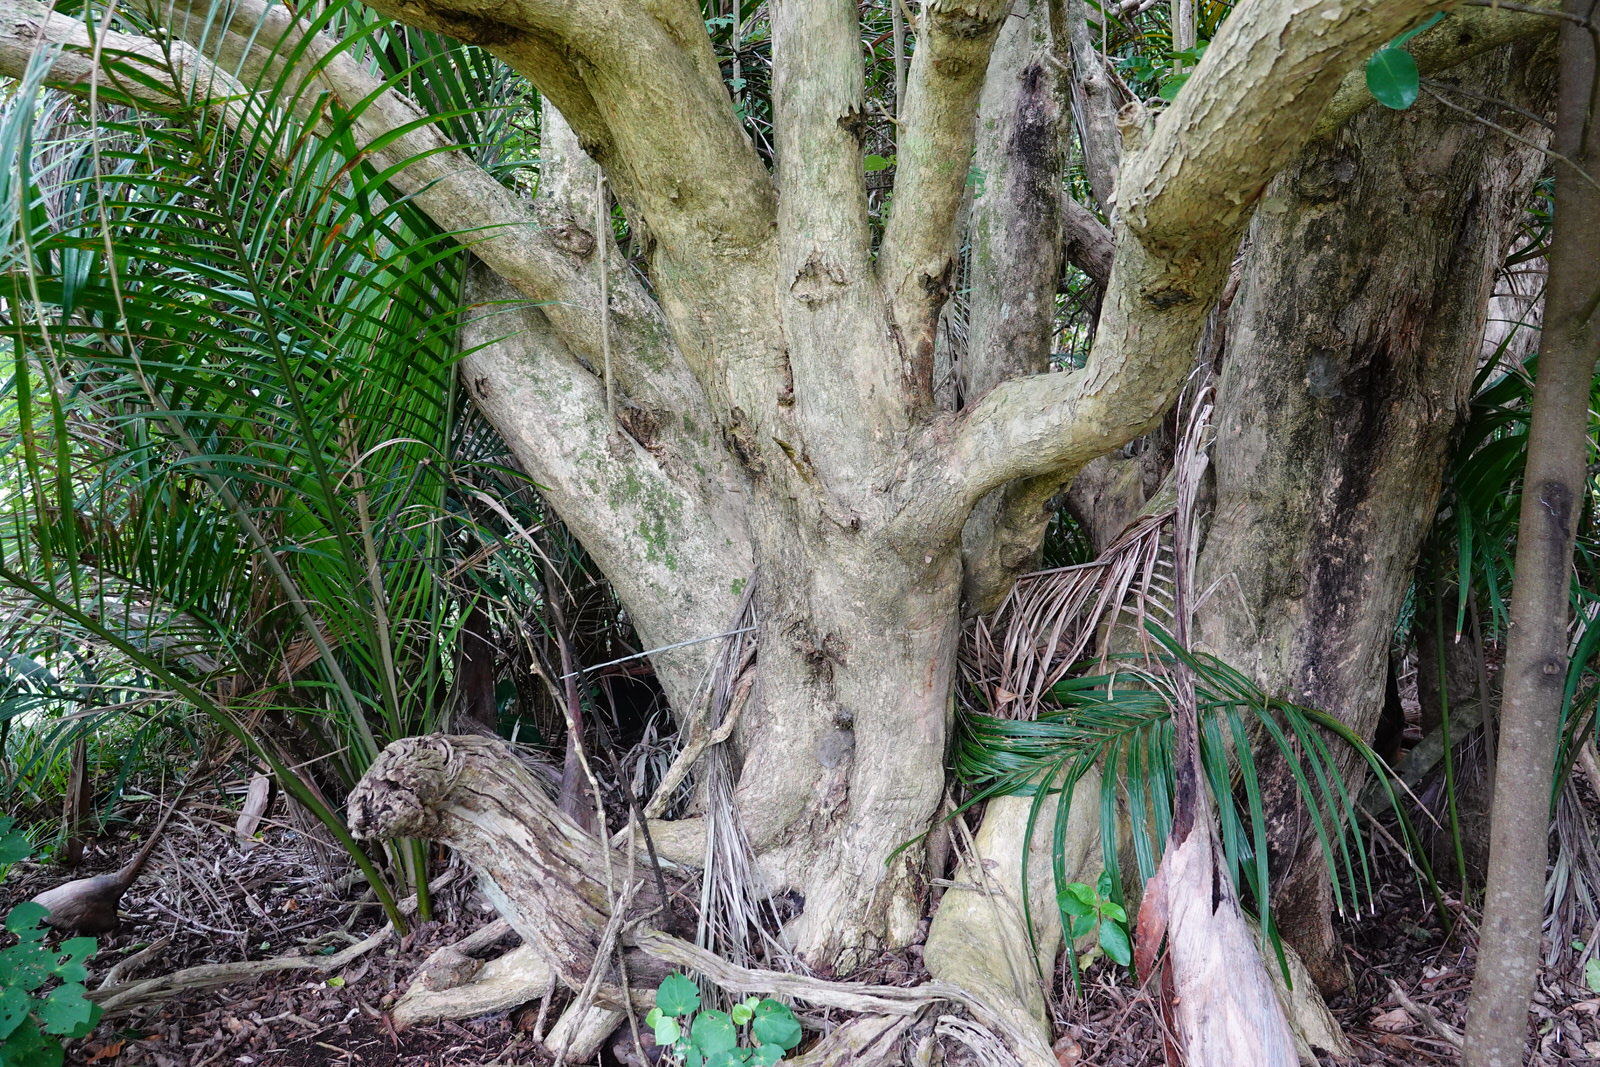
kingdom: Plantae
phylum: Tracheophyta
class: Magnoliopsida
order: Lamiales
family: Lamiaceae
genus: Vitex
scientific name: Vitex lucens
